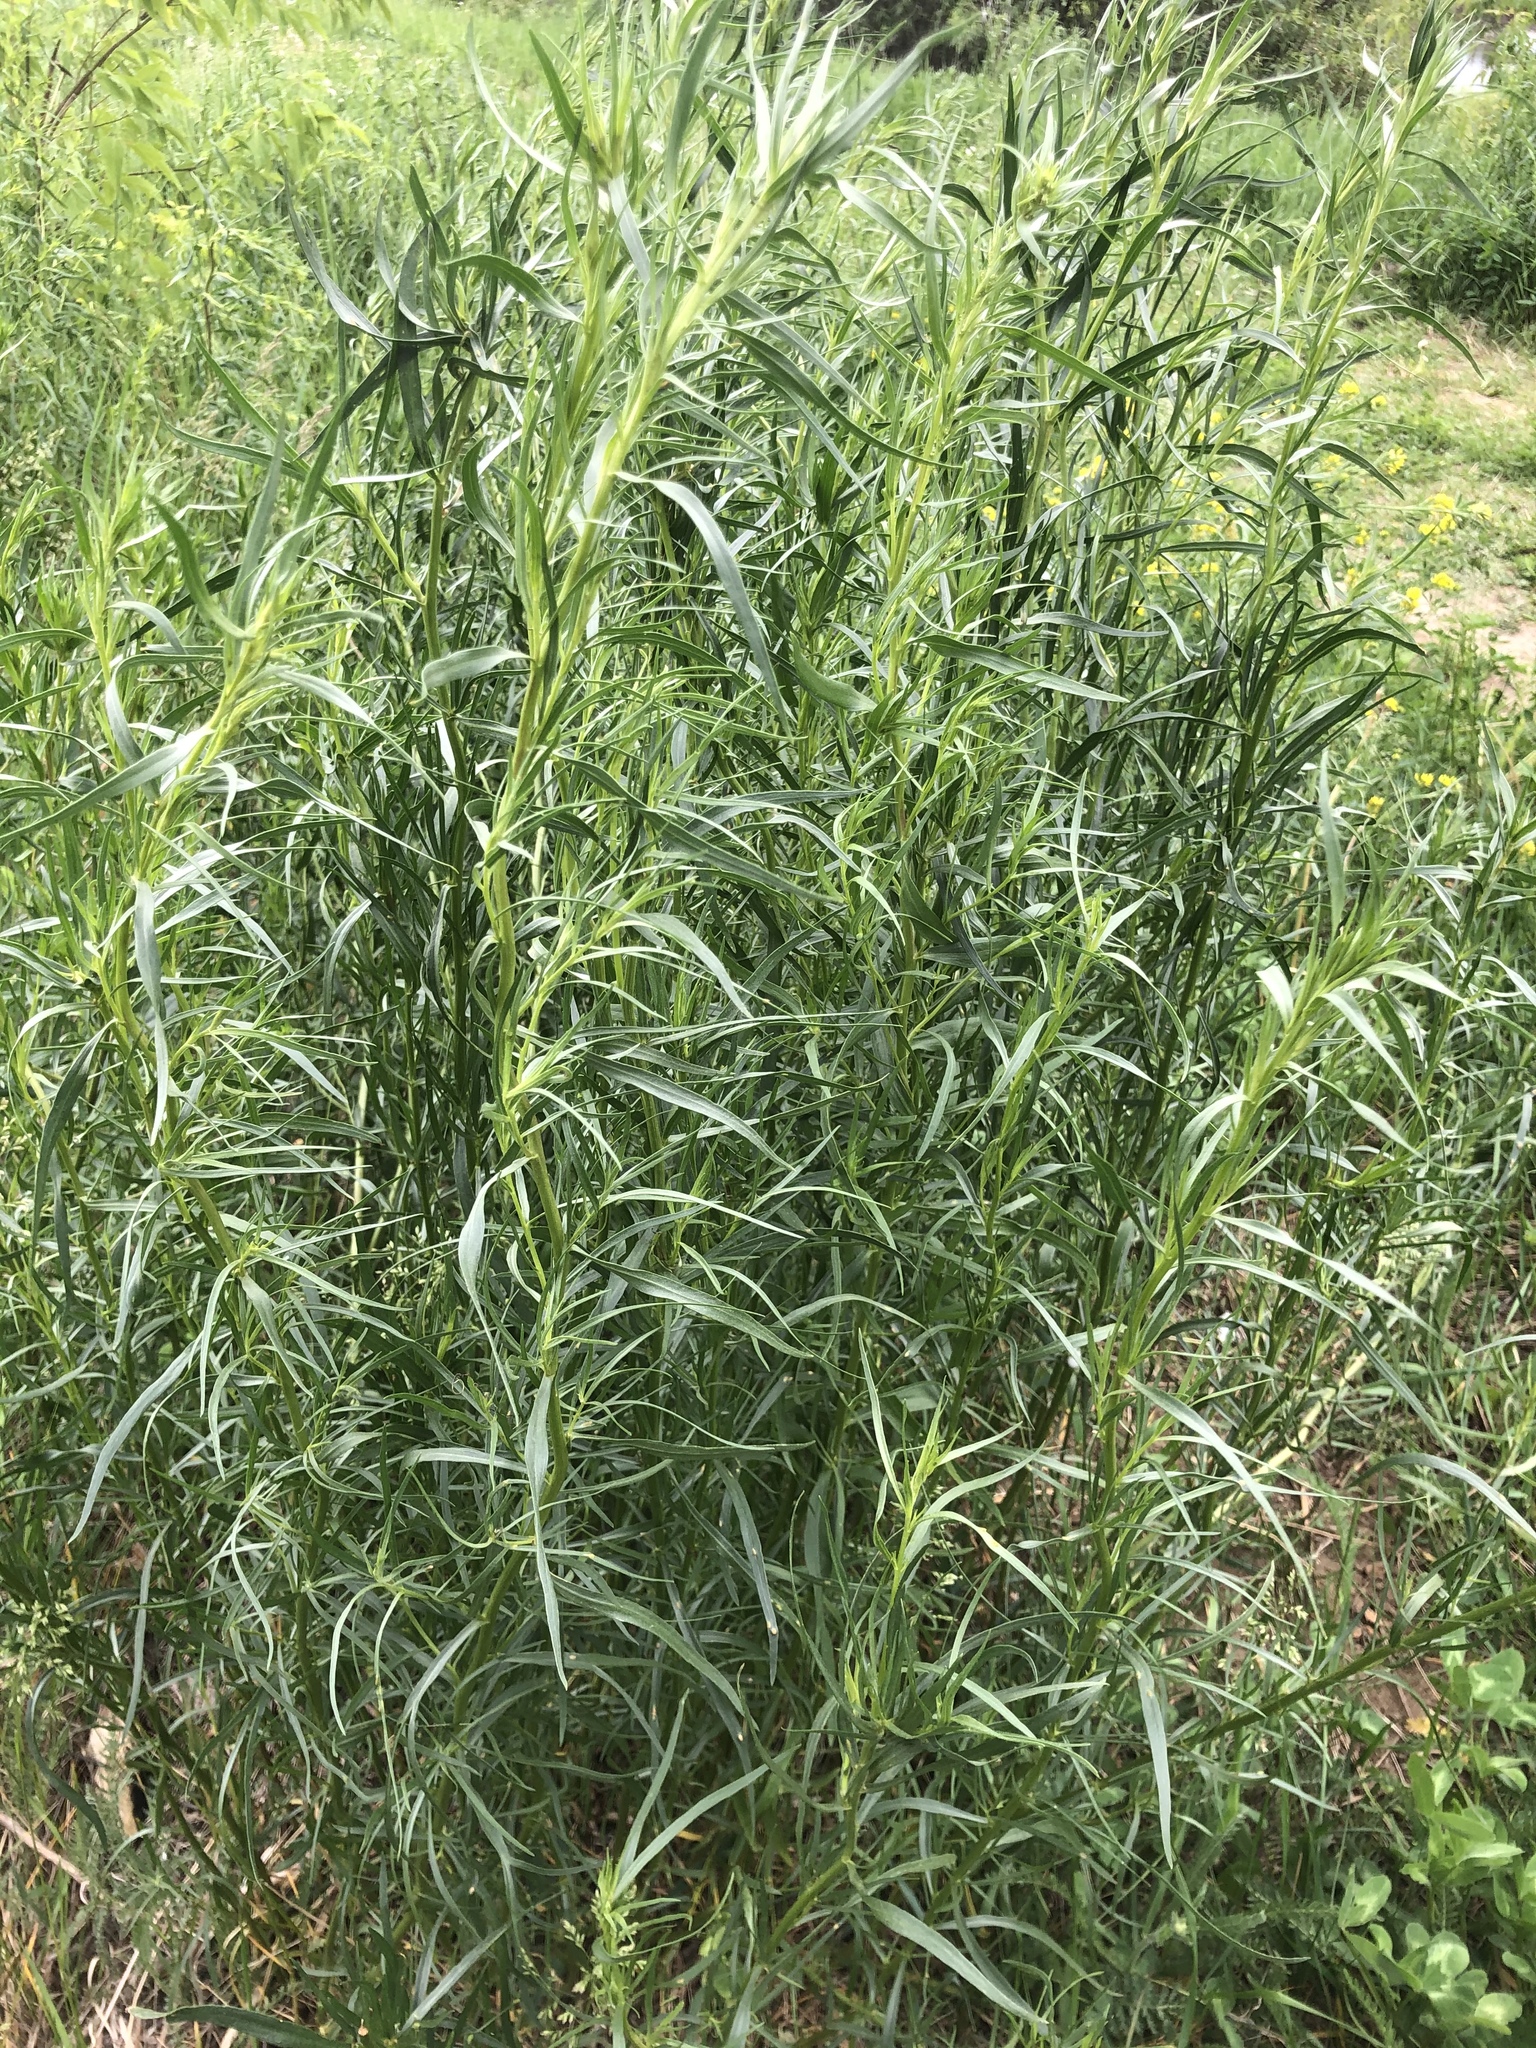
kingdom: Plantae
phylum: Tracheophyta
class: Magnoliopsida
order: Asterales
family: Asteraceae
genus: Artemisia
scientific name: Artemisia dracunculus
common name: Tarragon
